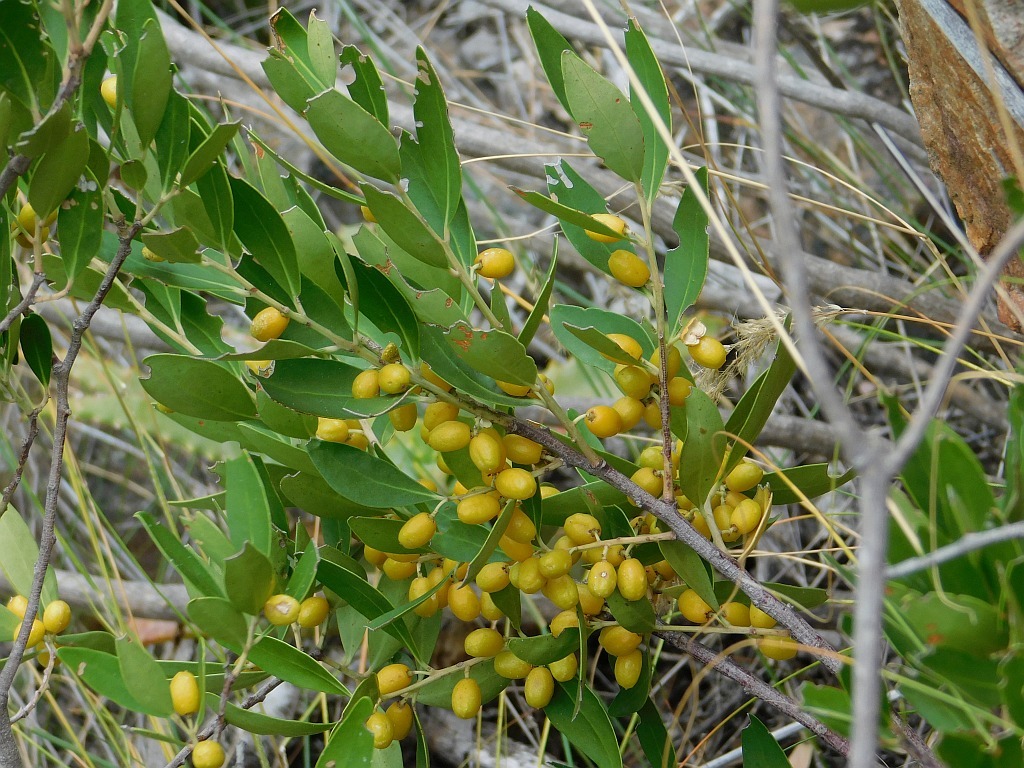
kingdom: Plantae
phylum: Tracheophyta
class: Magnoliopsida
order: Celastrales
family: Celastraceae
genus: Gymnosporia
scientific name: Gymnosporia laurina
